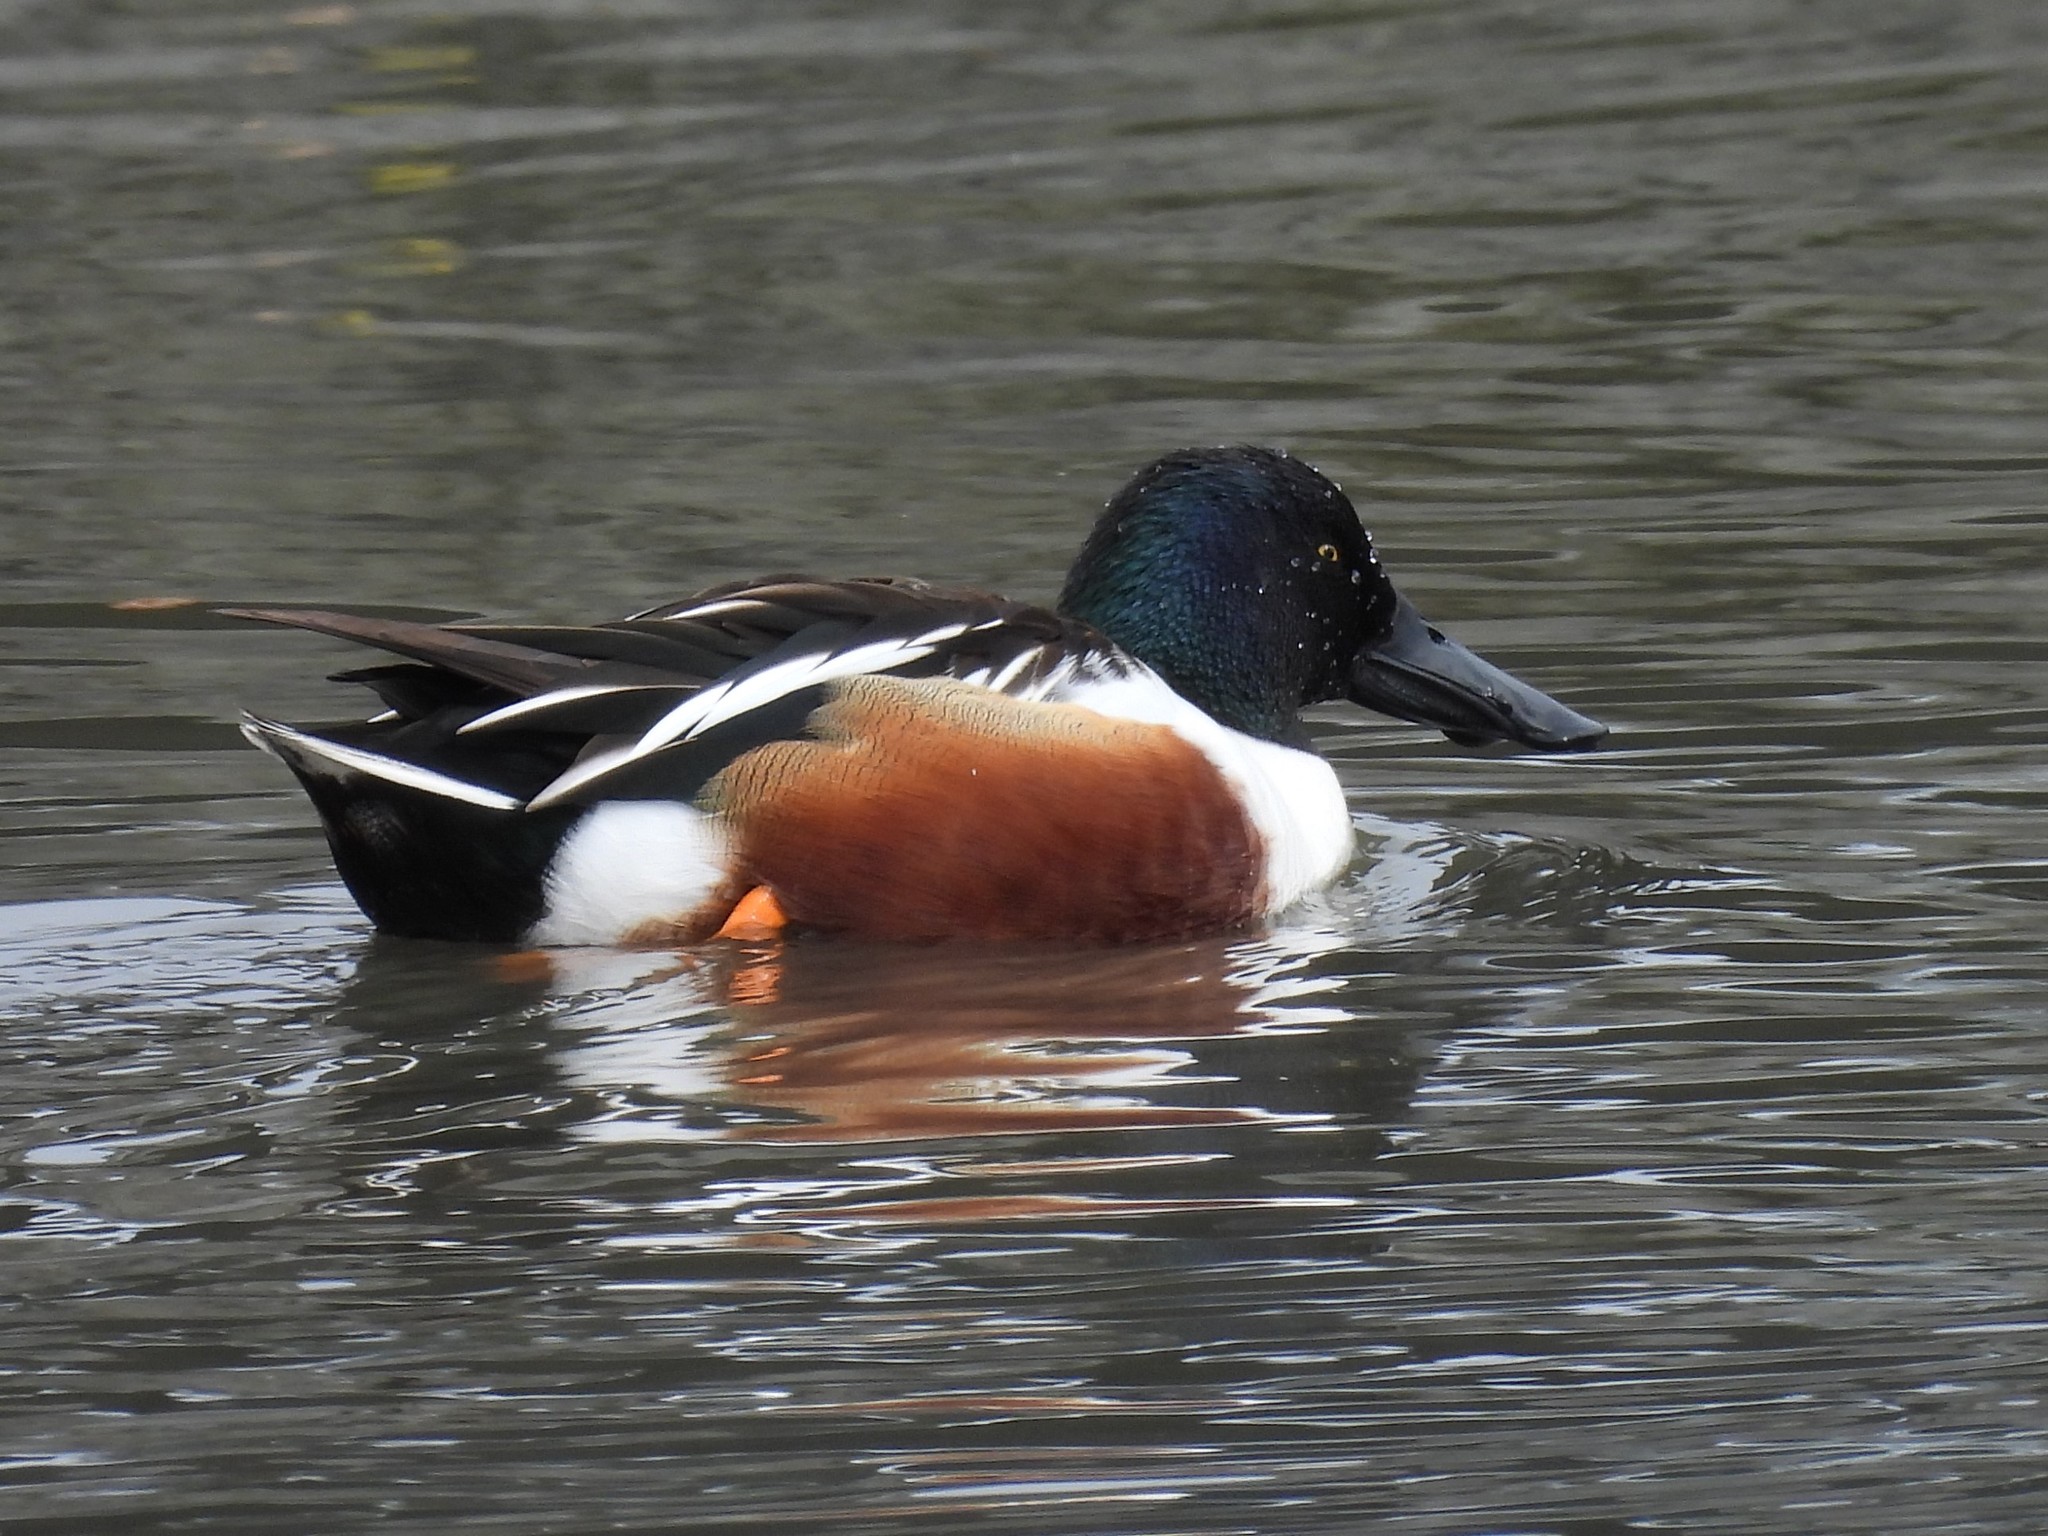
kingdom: Animalia
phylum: Chordata
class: Aves
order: Anseriformes
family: Anatidae
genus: Spatula
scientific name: Spatula clypeata
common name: Northern shoveler
